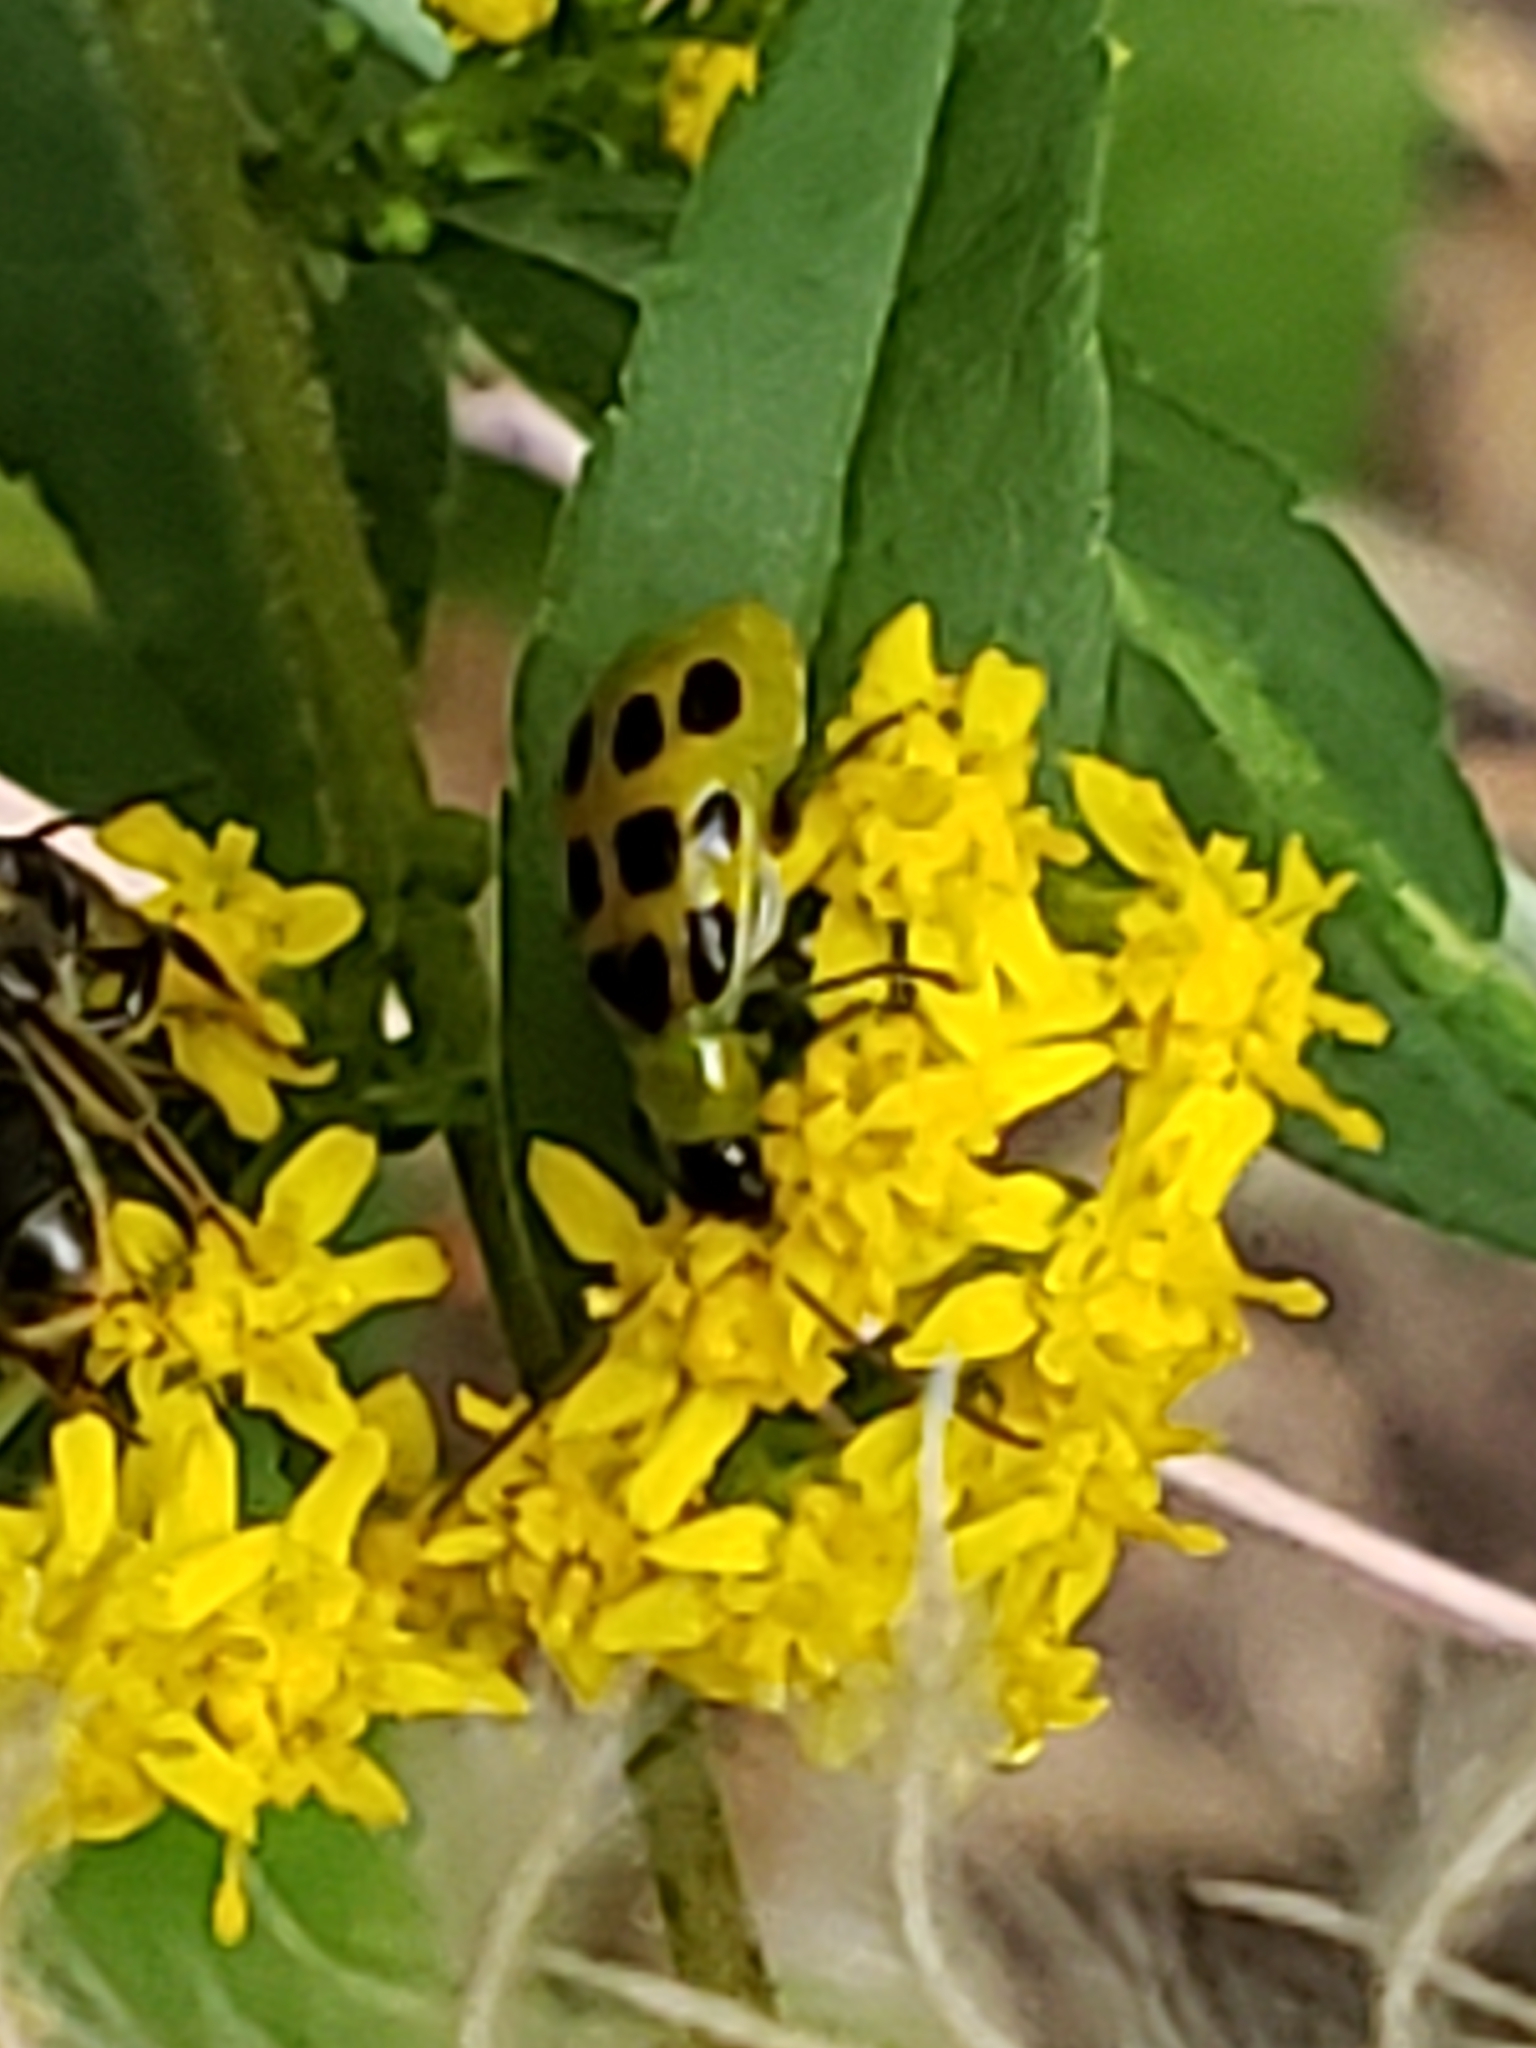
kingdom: Animalia
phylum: Arthropoda
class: Insecta
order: Coleoptera
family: Chrysomelidae
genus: Diabrotica
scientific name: Diabrotica undecimpunctata
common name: Spotted cucumber beetle
